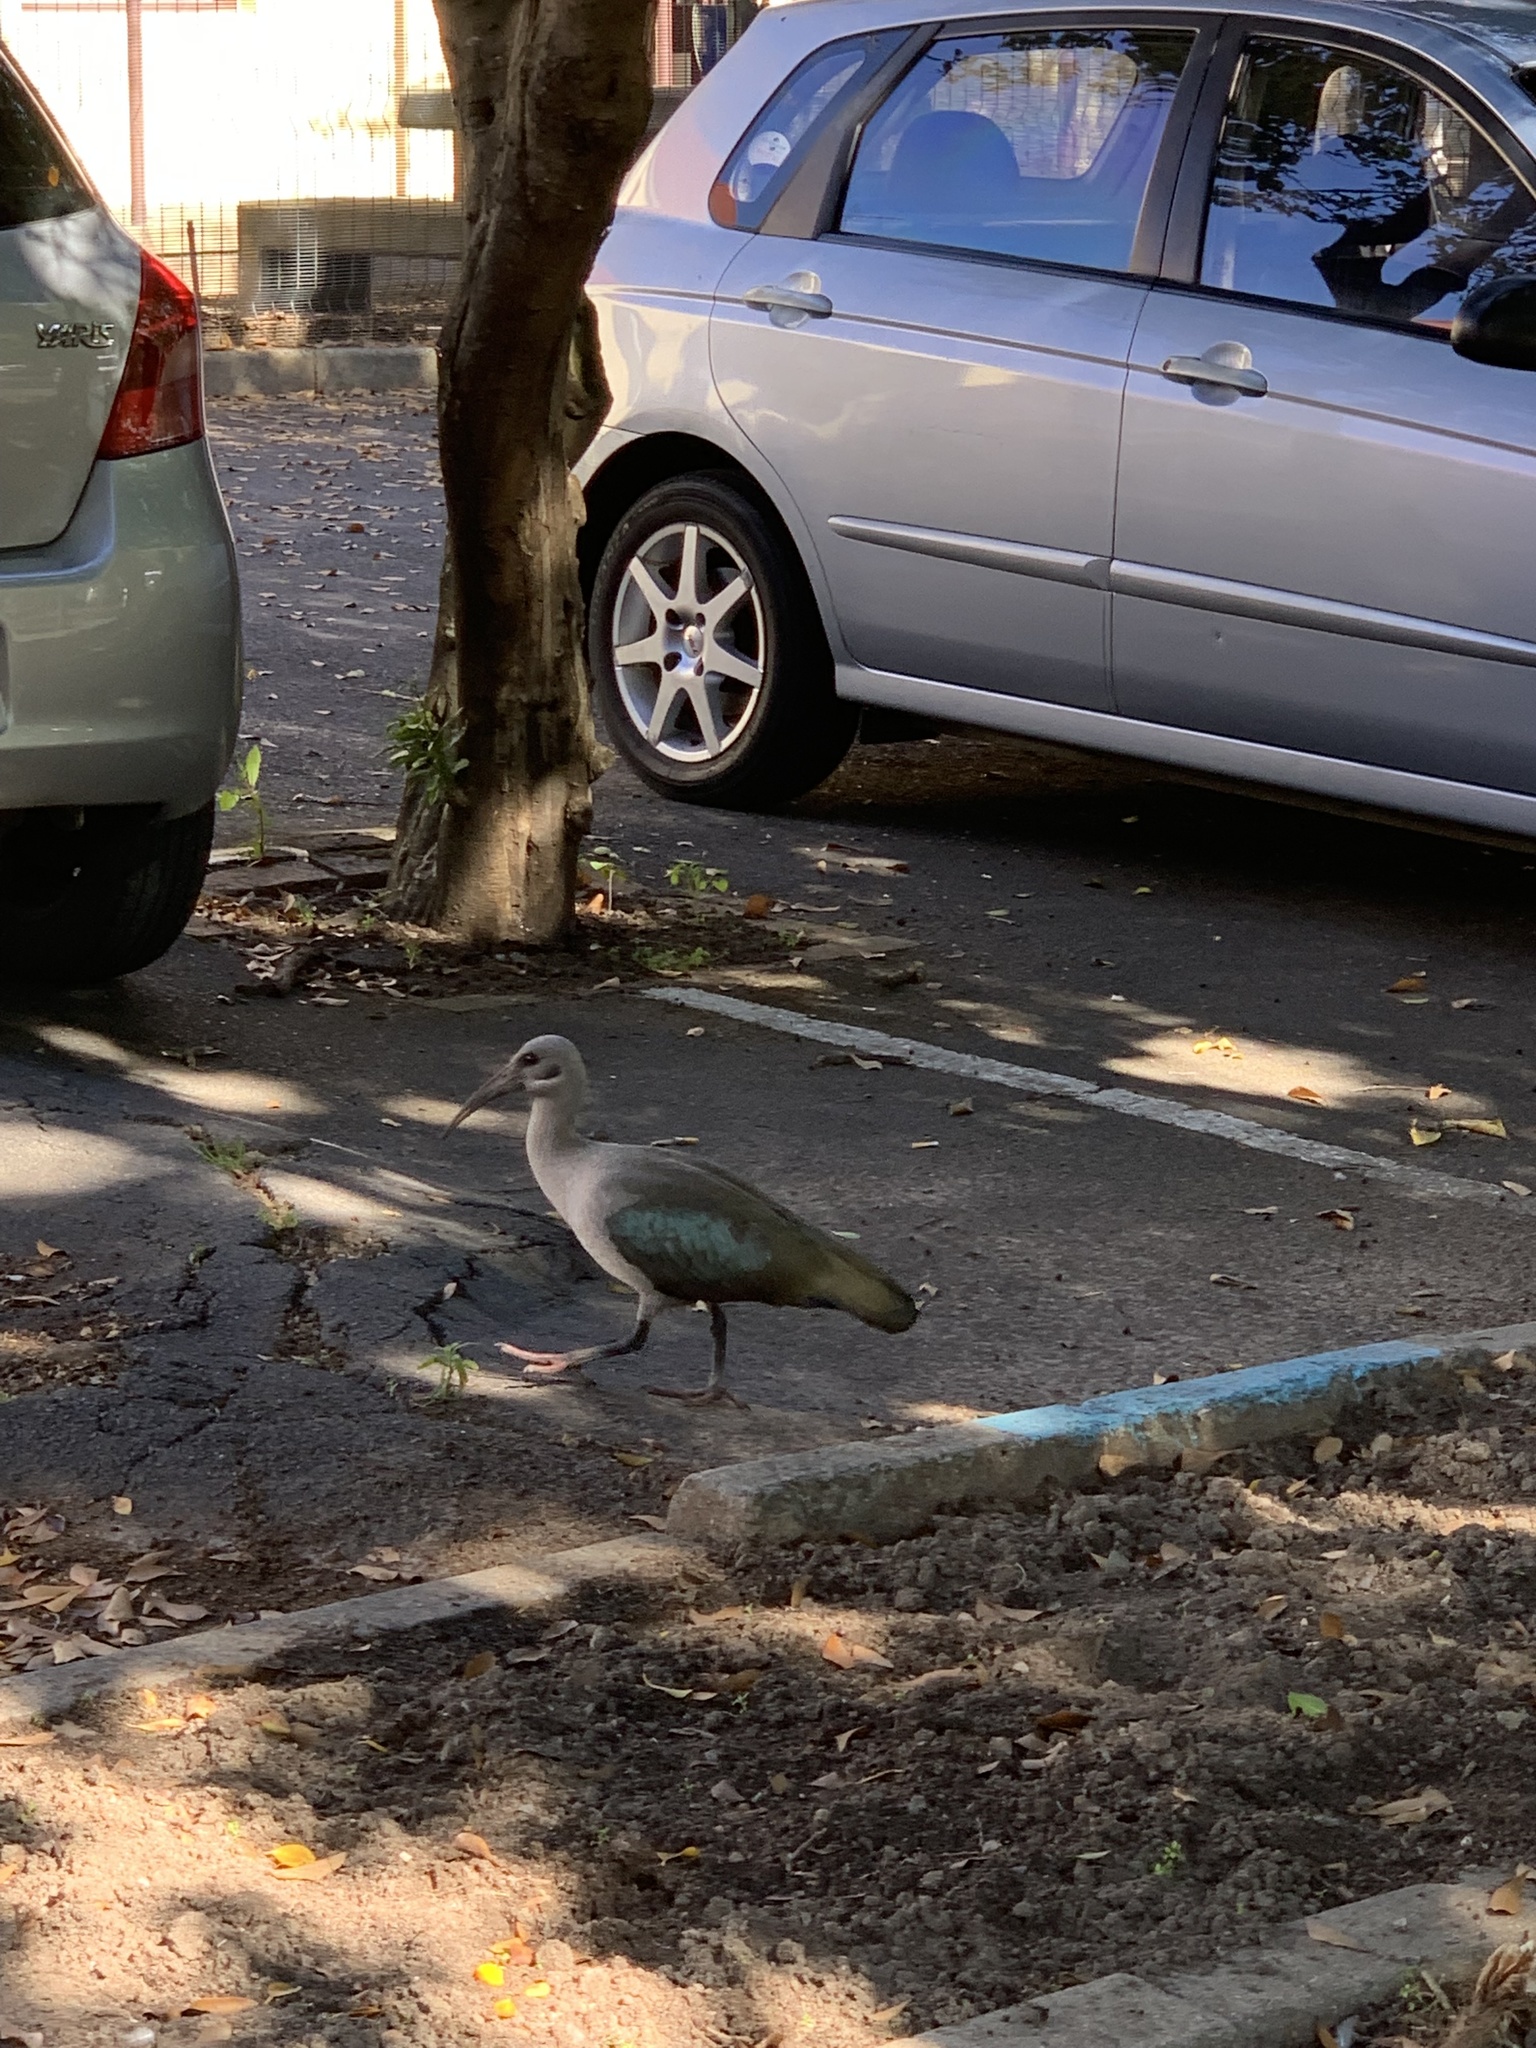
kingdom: Animalia
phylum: Chordata
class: Aves
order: Pelecaniformes
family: Threskiornithidae
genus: Bostrychia
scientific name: Bostrychia hagedash
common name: Hadada ibis
